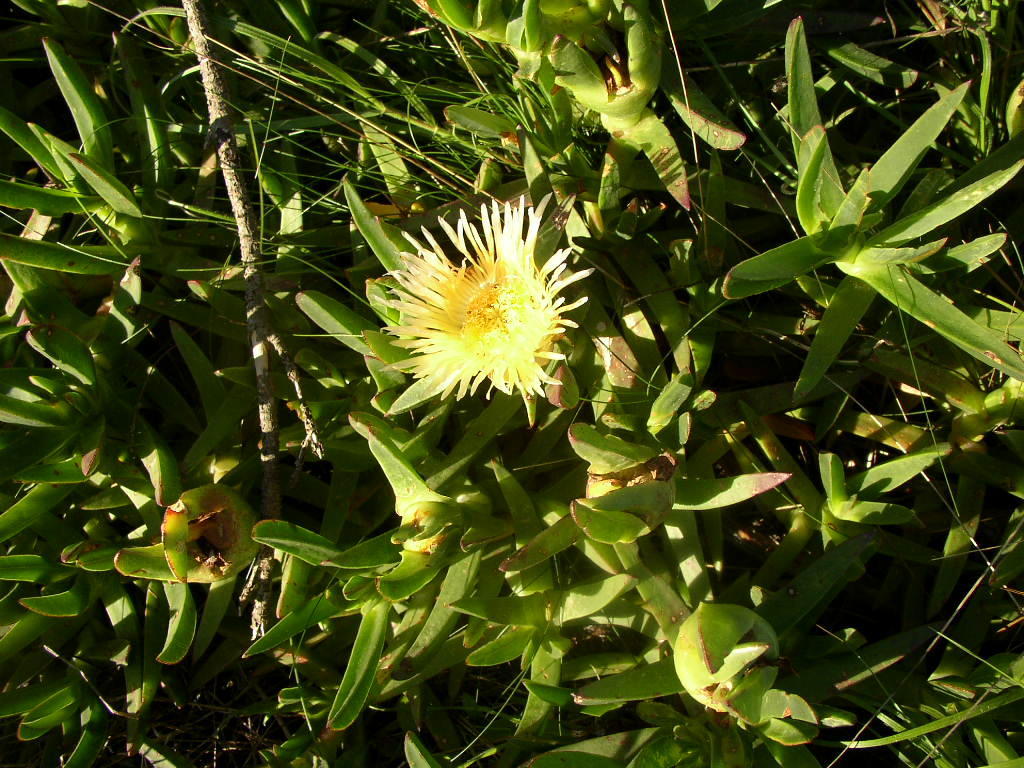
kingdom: Plantae
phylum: Tracheophyta
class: Magnoliopsida
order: Caryophyllales
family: Aizoaceae
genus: Carpobrotus
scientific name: Carpobrotus edulis
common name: Hottentot-fig
